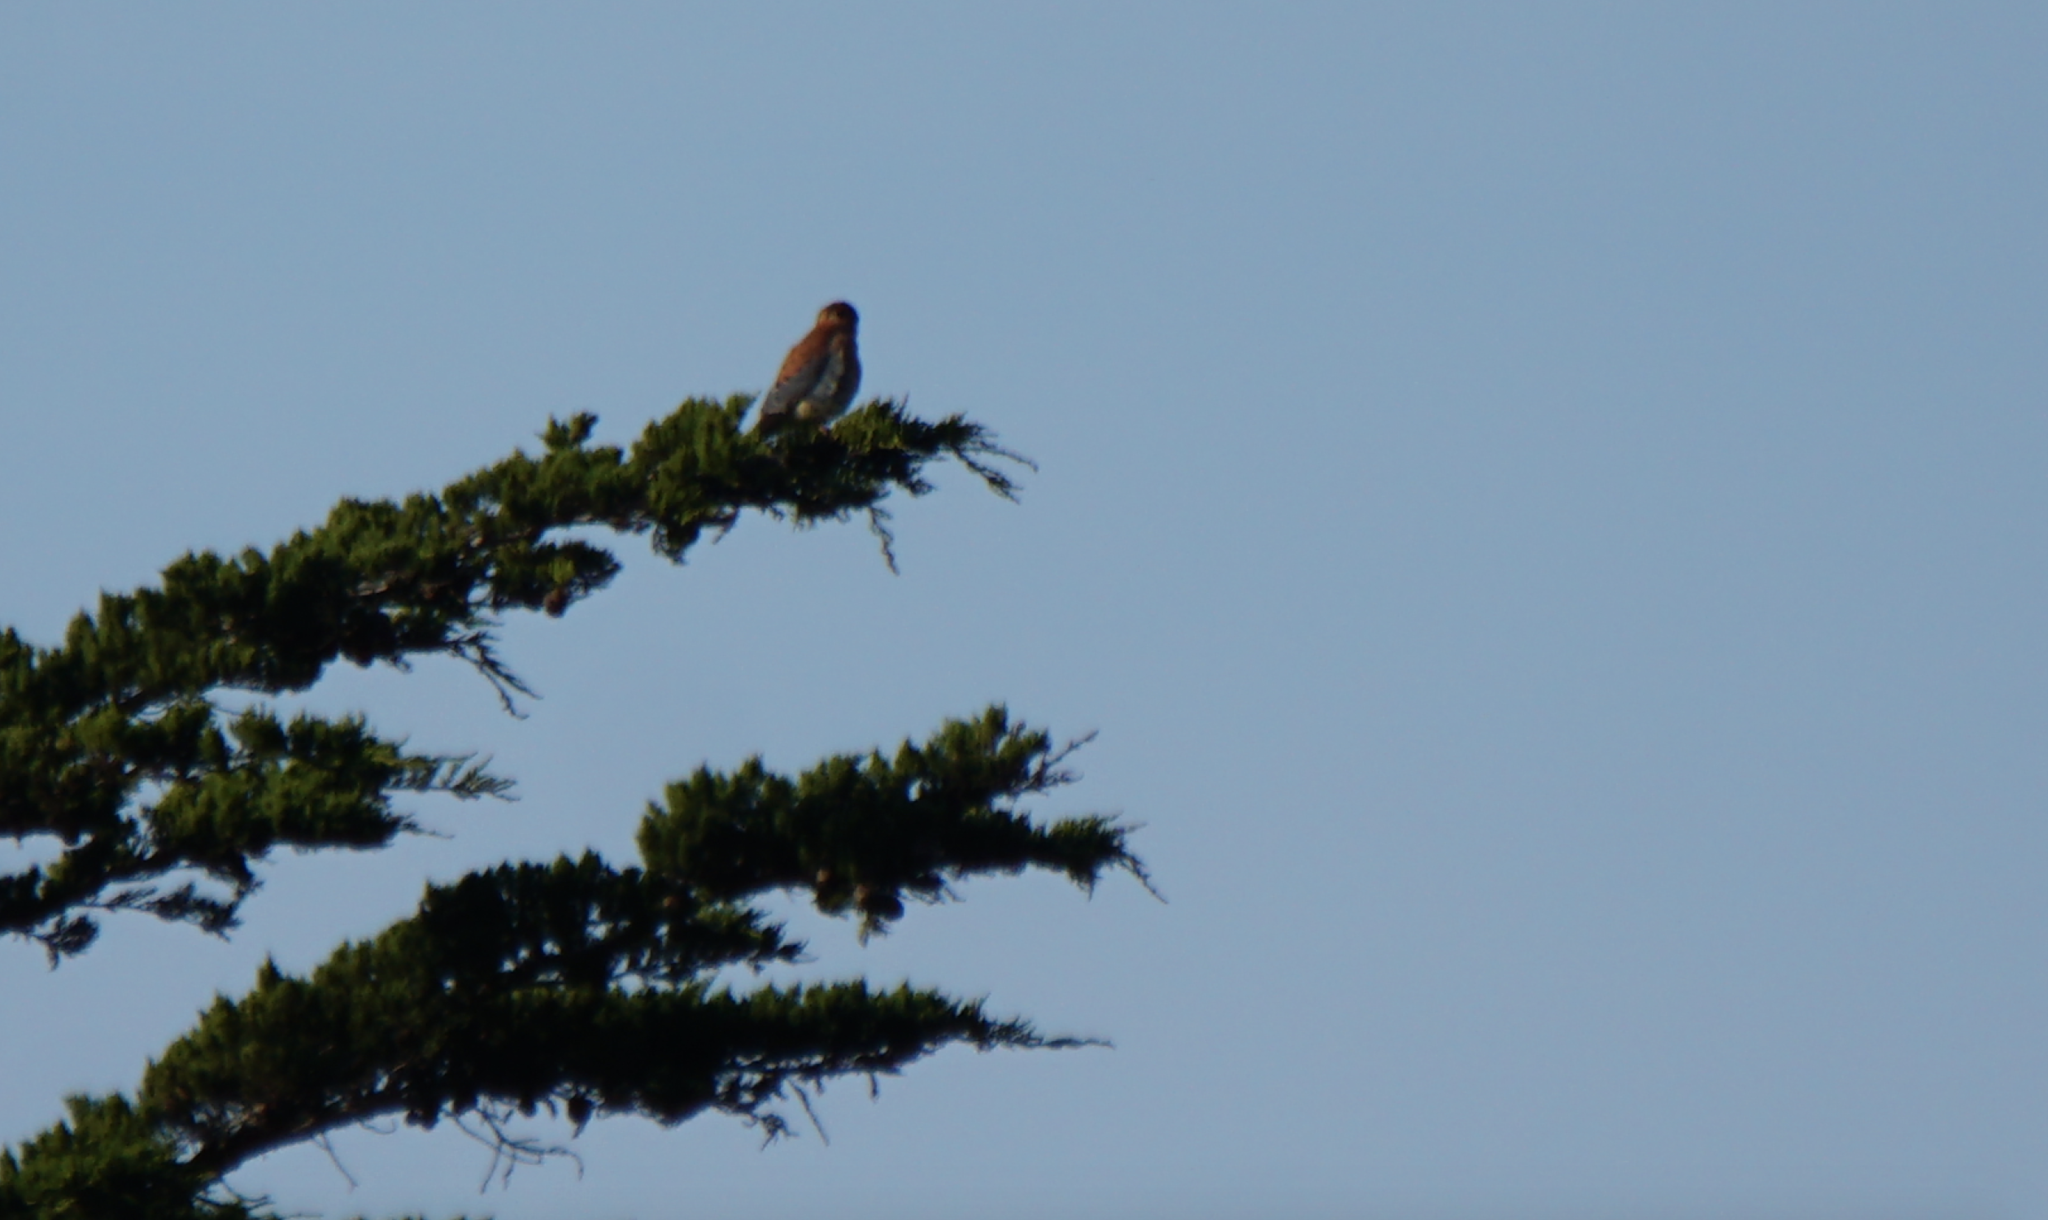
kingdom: Animalia
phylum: Chordata
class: Aves
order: Falconiformes
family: Falconidae
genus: Falco
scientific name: Falco sparverius
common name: American kestrel
